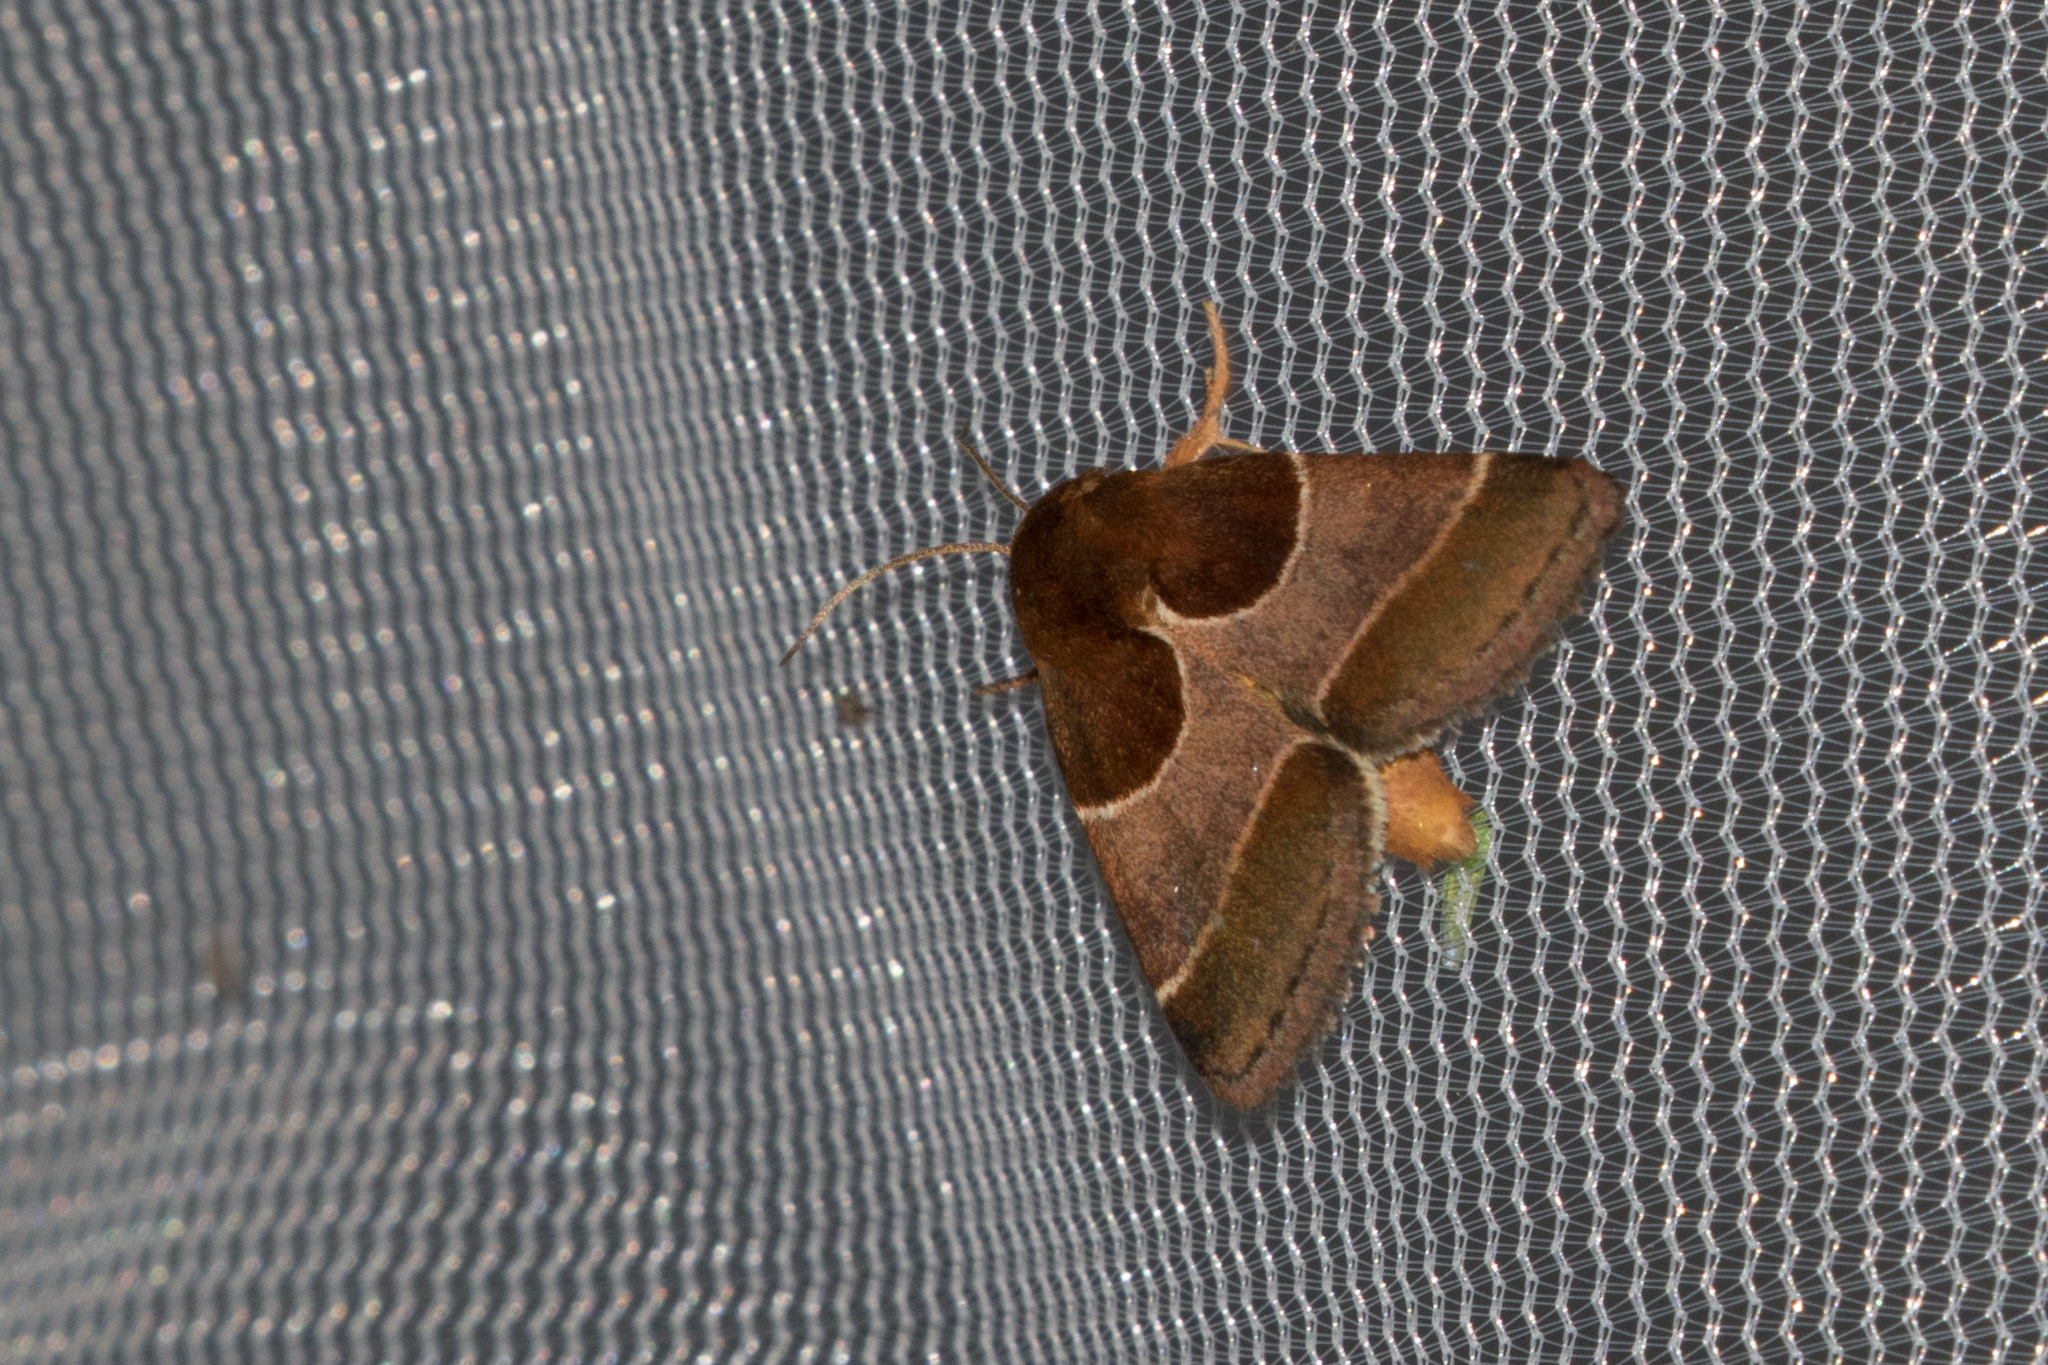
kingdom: Animalia
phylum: Arthropoda
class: Insecta
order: Lepidoptera
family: Noctuidae
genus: Schinia
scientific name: Schinia arcigera
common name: Arcigera flower moth
